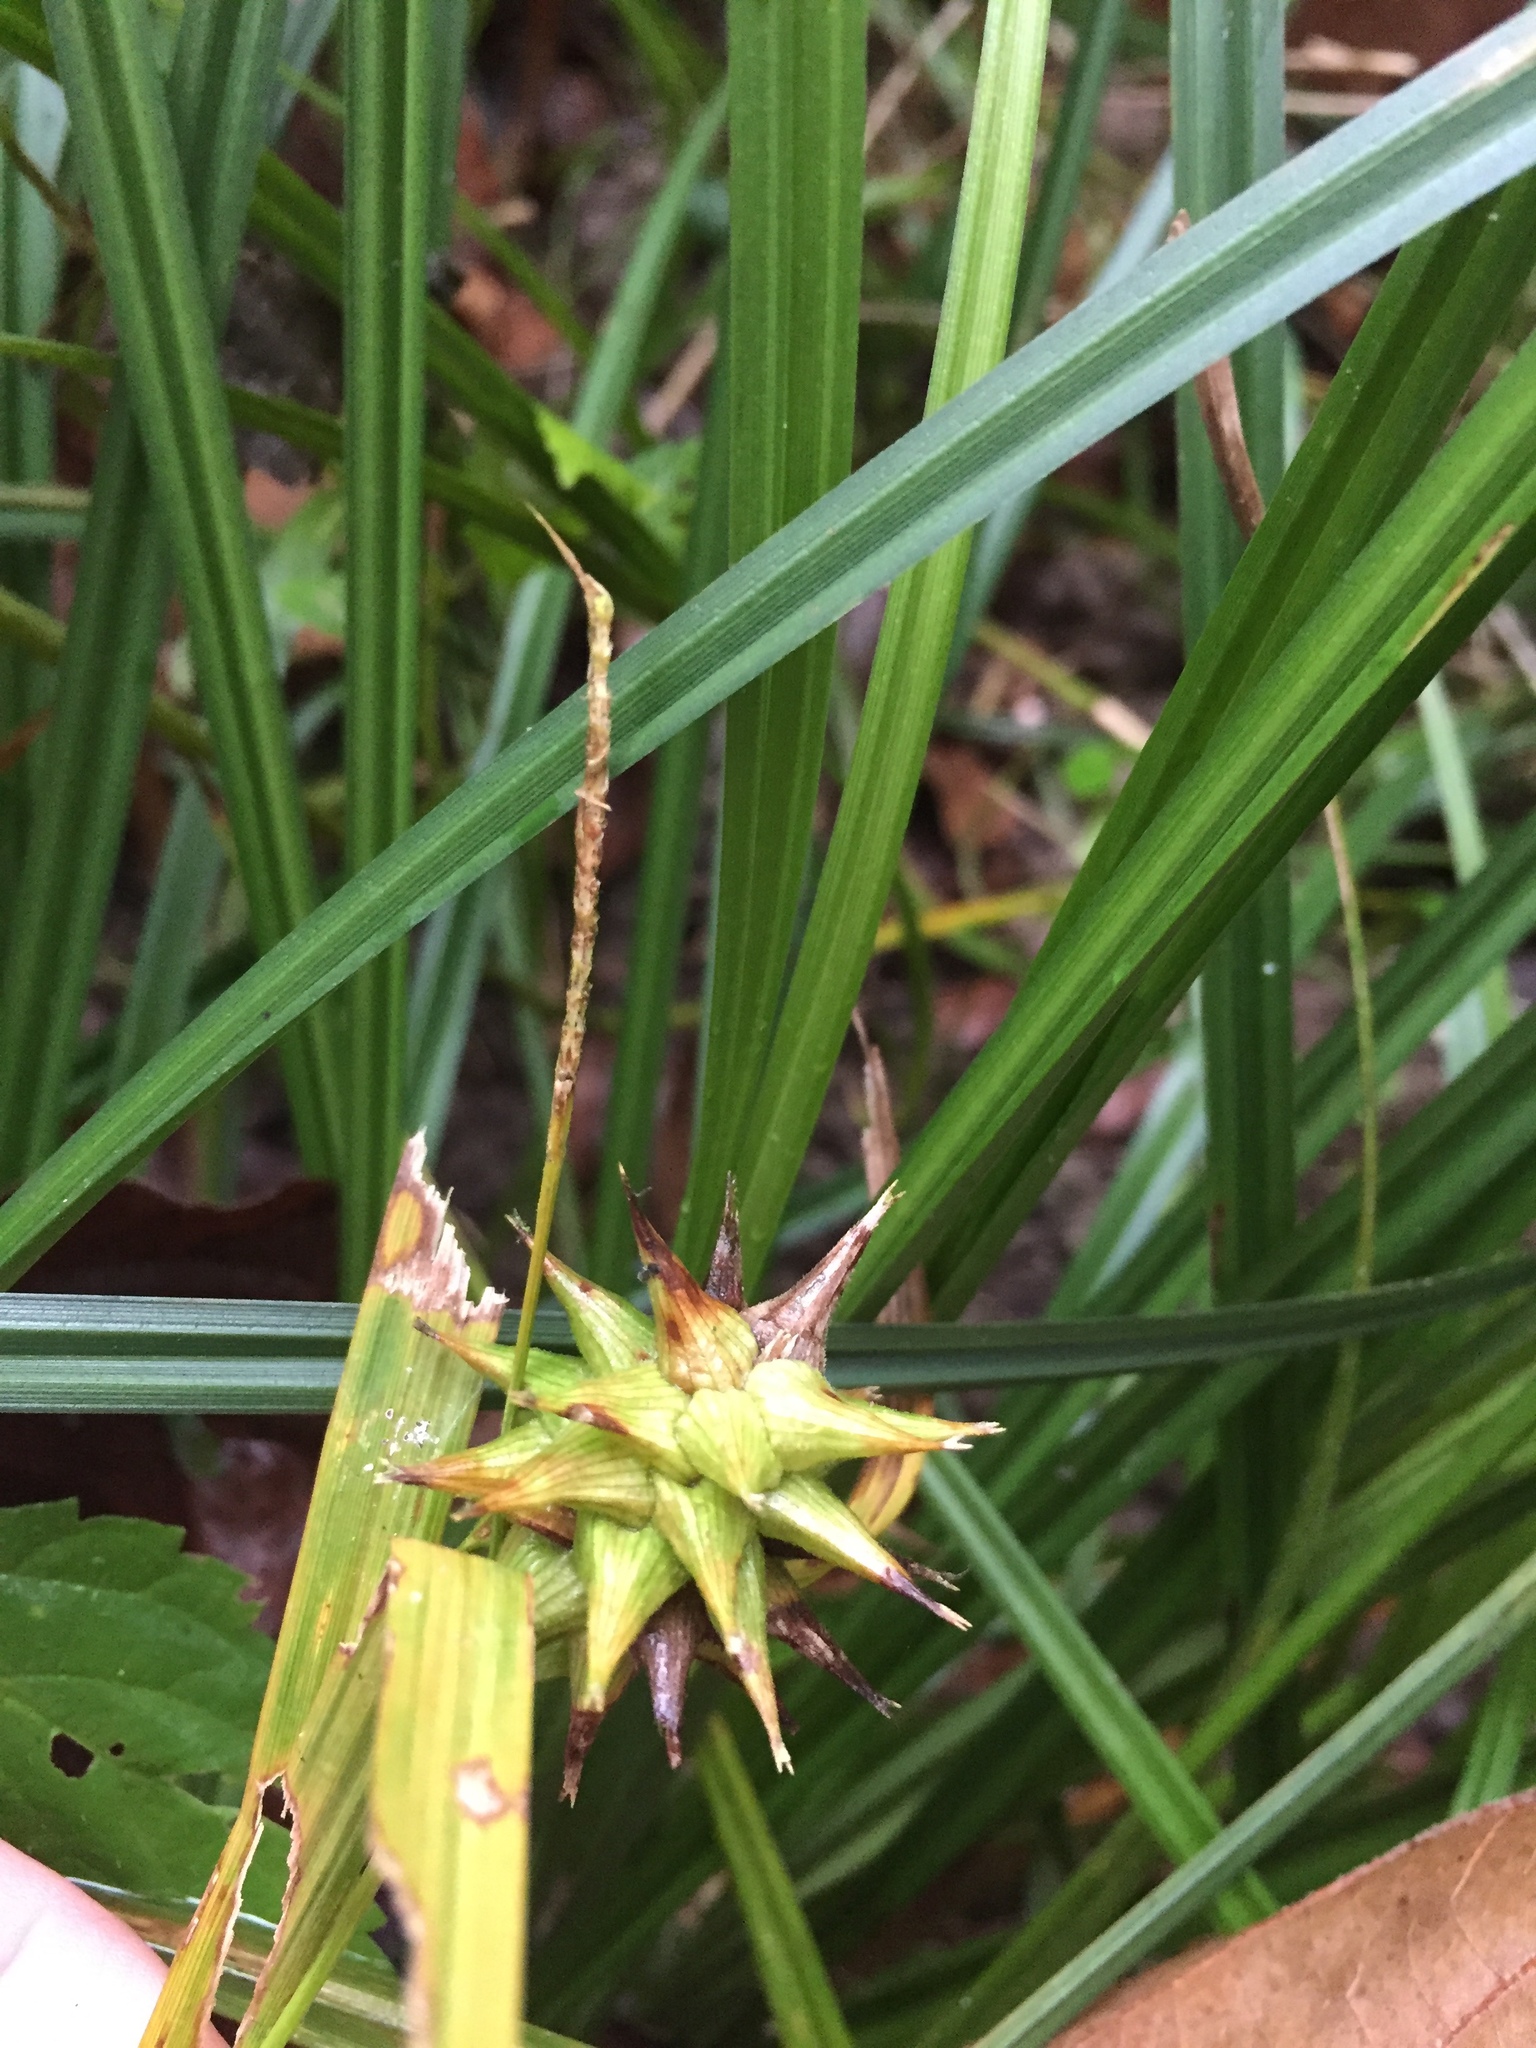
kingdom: Plantae
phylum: Tracheophyta
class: Liliopsida
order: Poales
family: Cyperaceae
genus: Carex
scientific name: Carex grayi
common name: Asa gray's sedge
